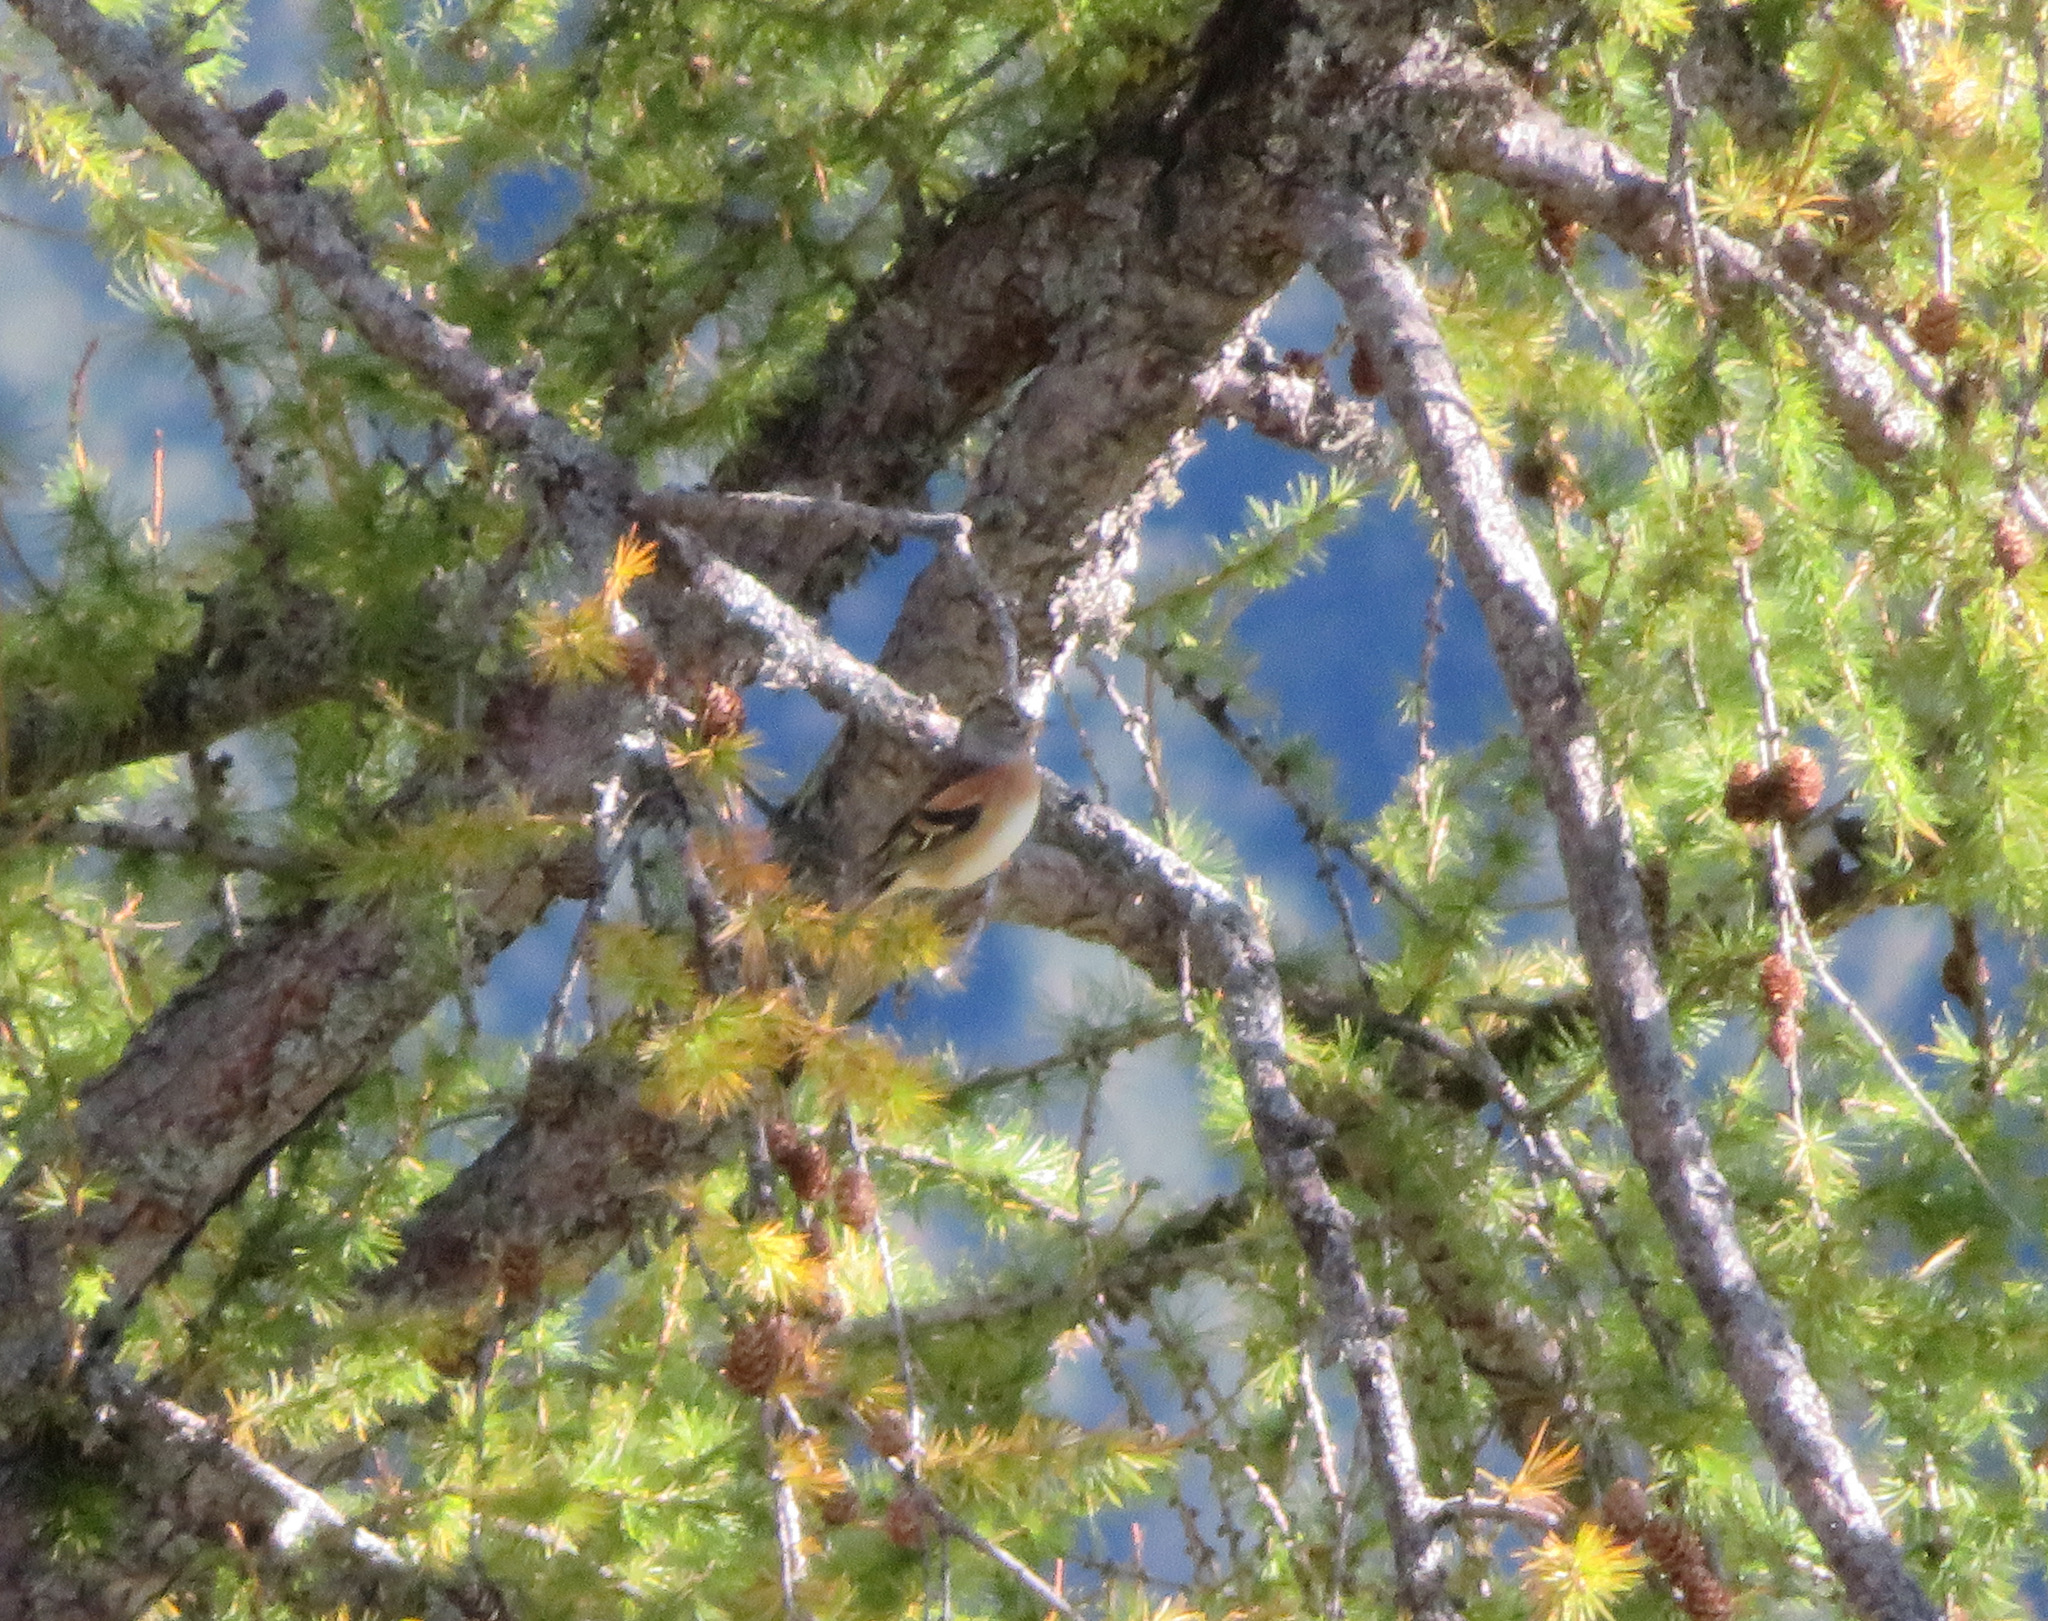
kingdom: Animalia
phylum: Chordata
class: Aves
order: Passeriformes
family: Fringillidae
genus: Fringilla
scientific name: Fringilla montifringilla
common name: Brambling
